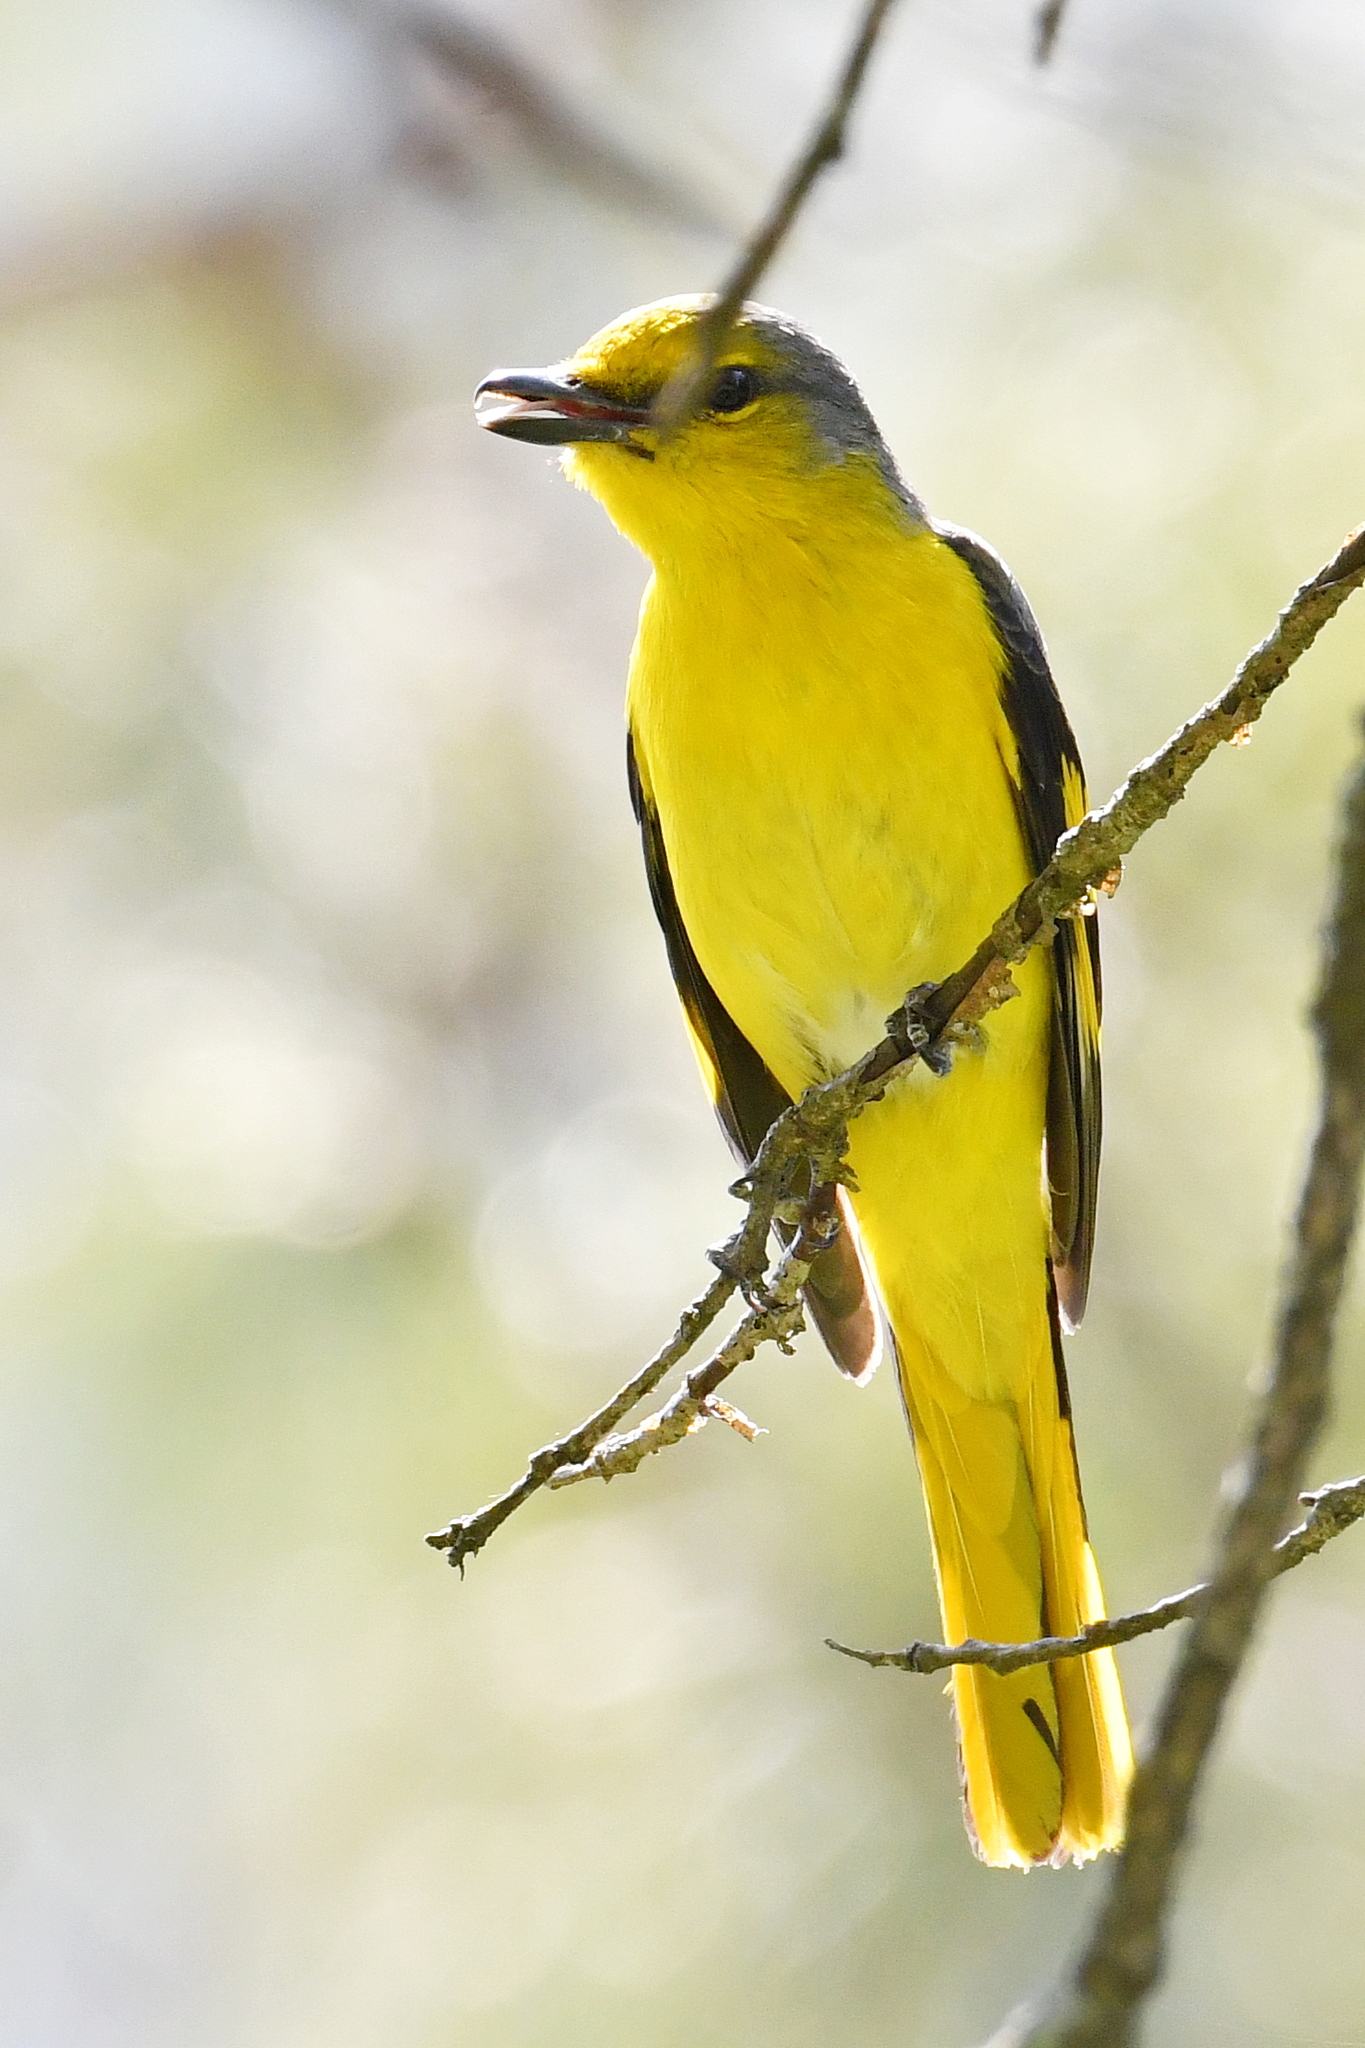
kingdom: Animalia
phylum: Chordata
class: Aves
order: Passeriformes
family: Campephagidae
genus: Pericrocotus
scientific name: Pericrocotus speciosus
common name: Scarlet minivet
